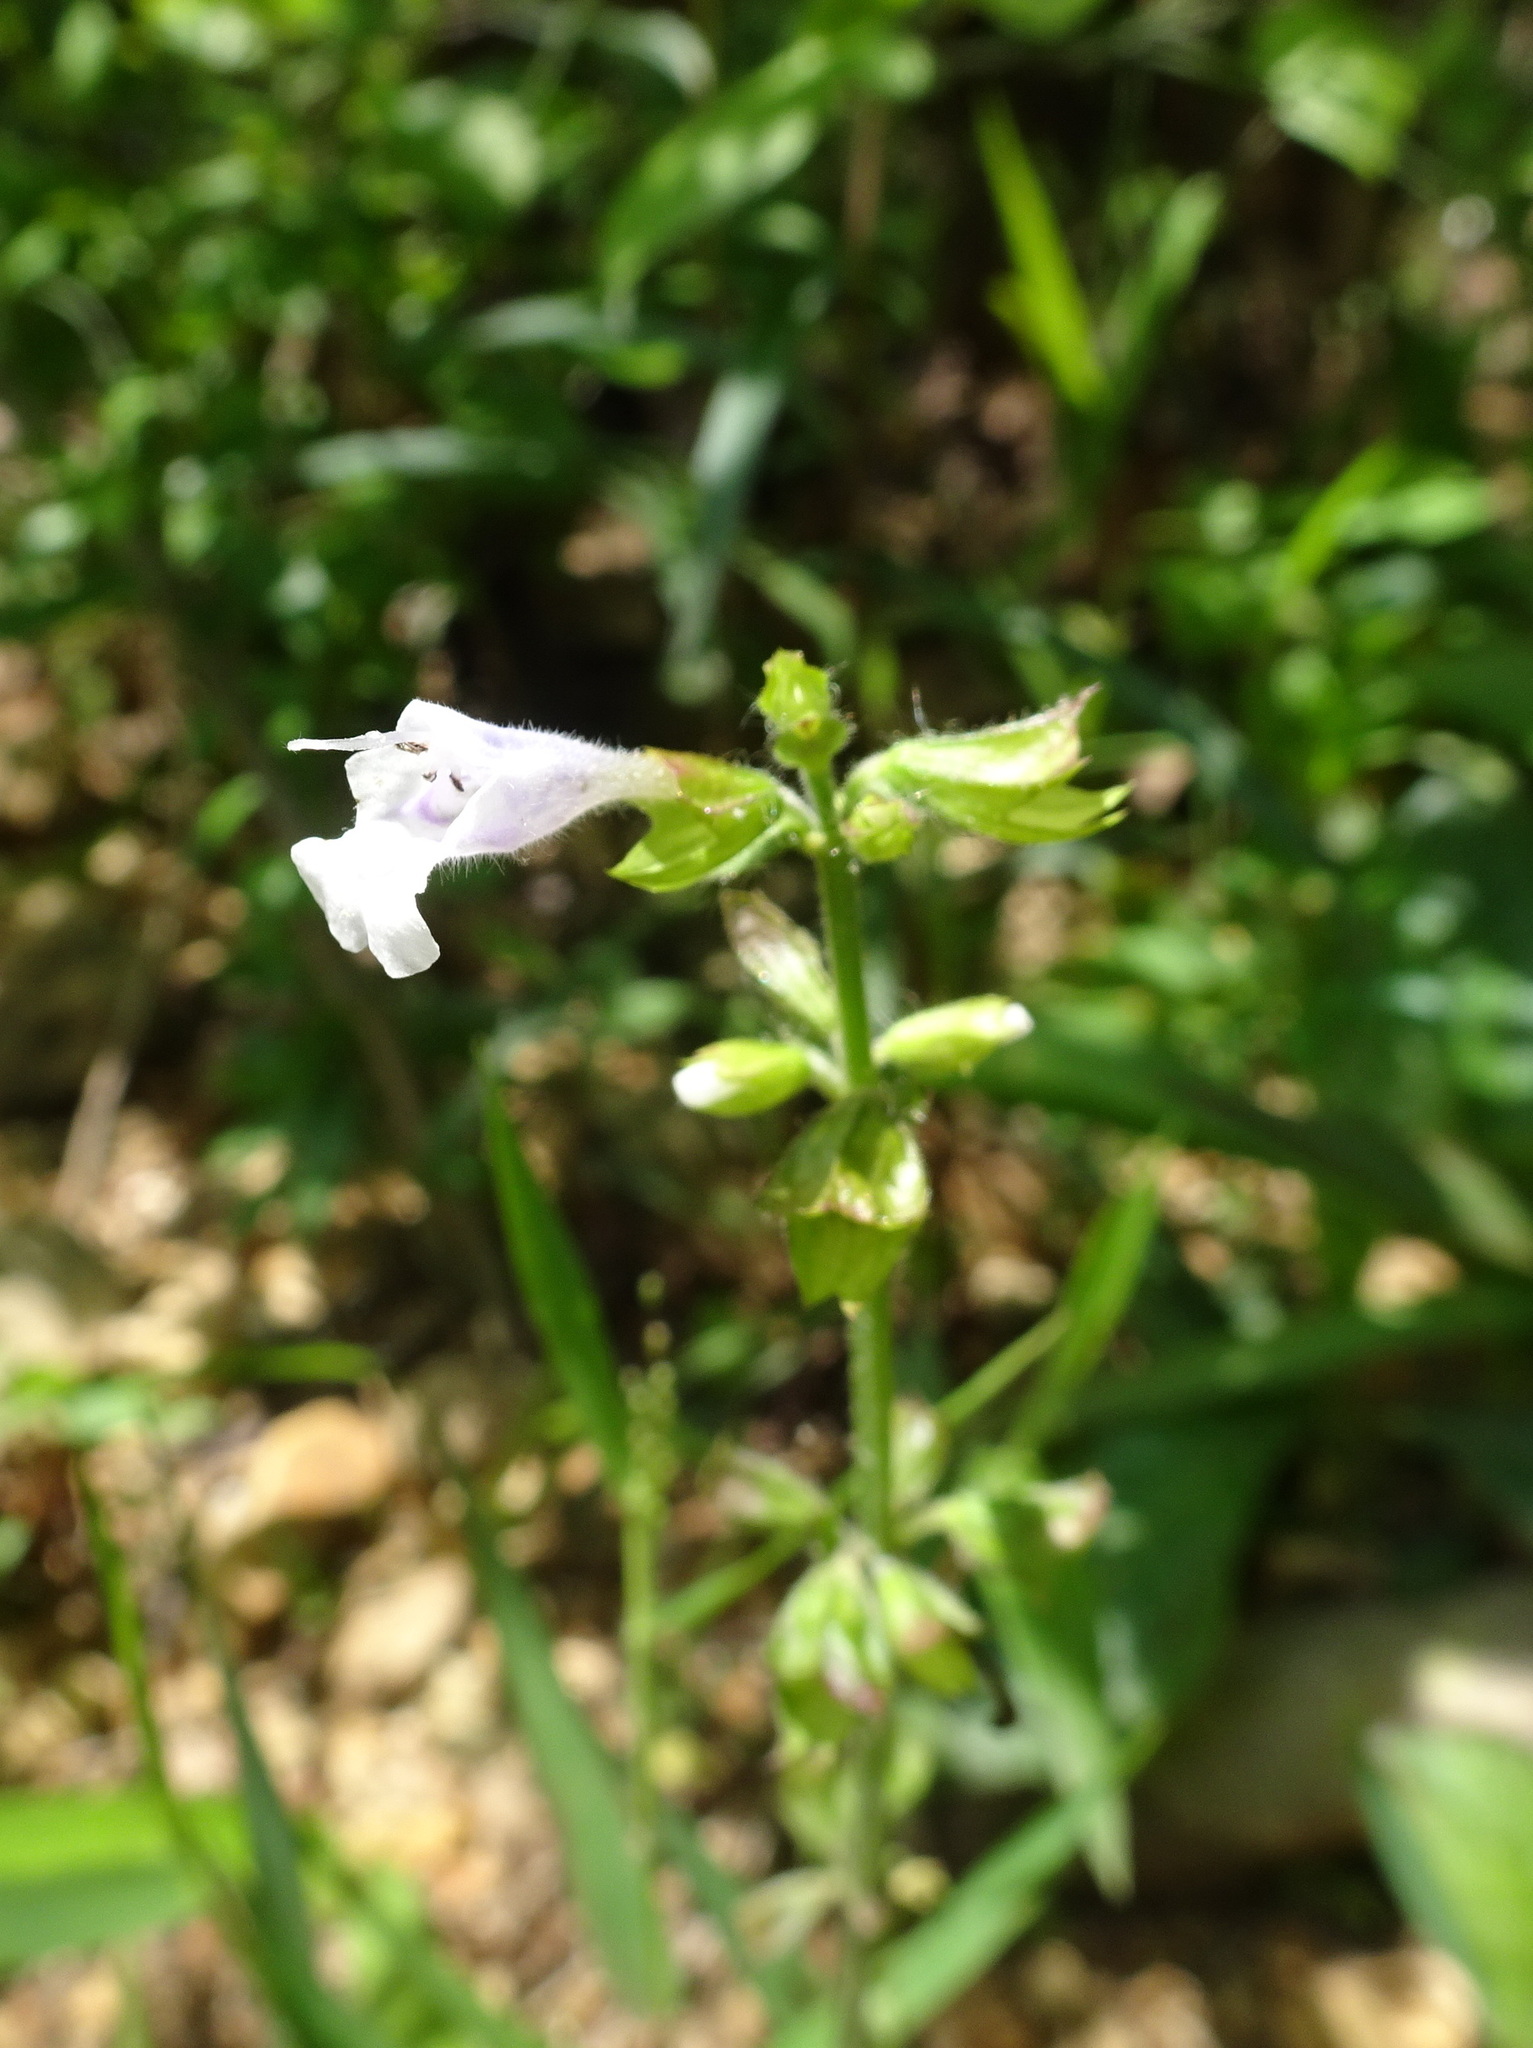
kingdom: Plantae
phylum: Tracheophyta
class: Magnoliopsida
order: Lamiales
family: Lamiaceae
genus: Salvia
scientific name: Salvia lyrata
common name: Cancerweed
